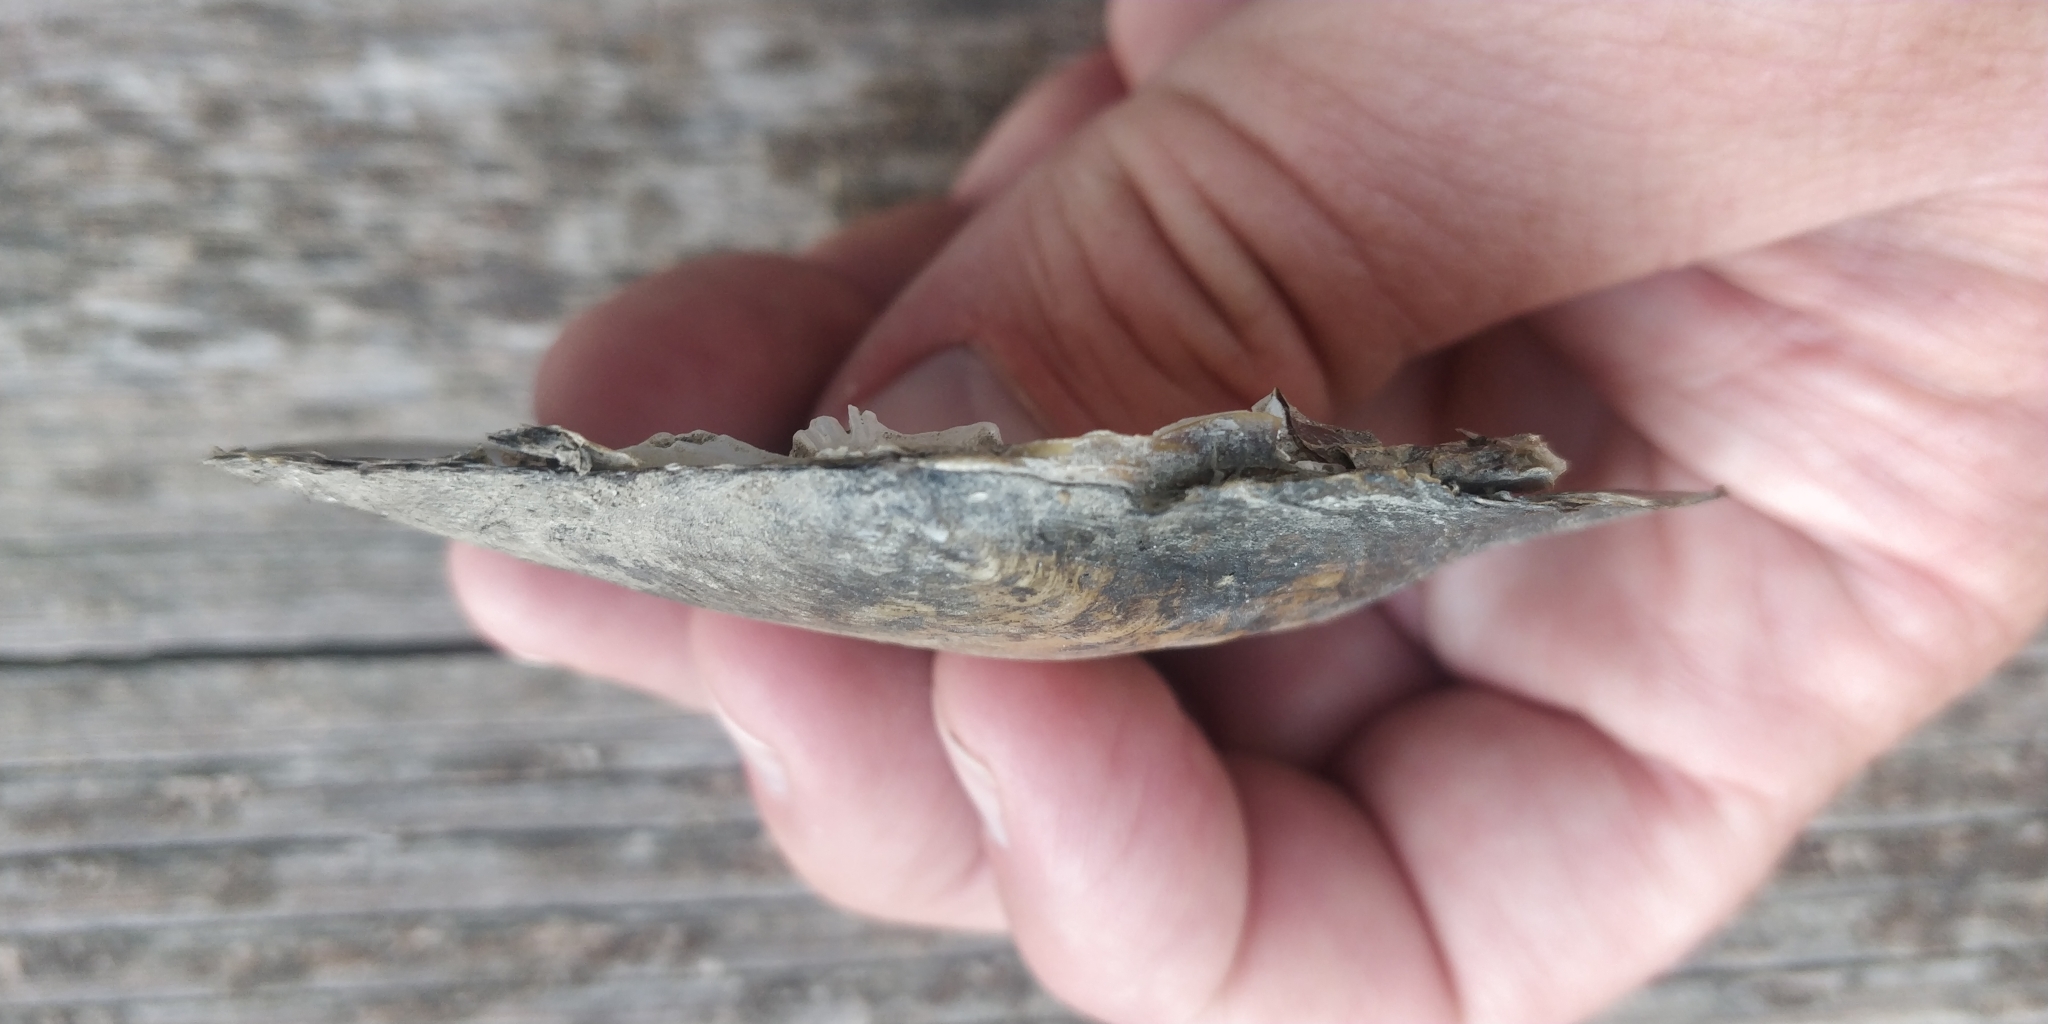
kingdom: Animalia
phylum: Mollusca
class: Bivalvia
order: Unionida
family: Unionidae
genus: Lasmigona
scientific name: Lasmigona complanata
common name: White heelsplitter
